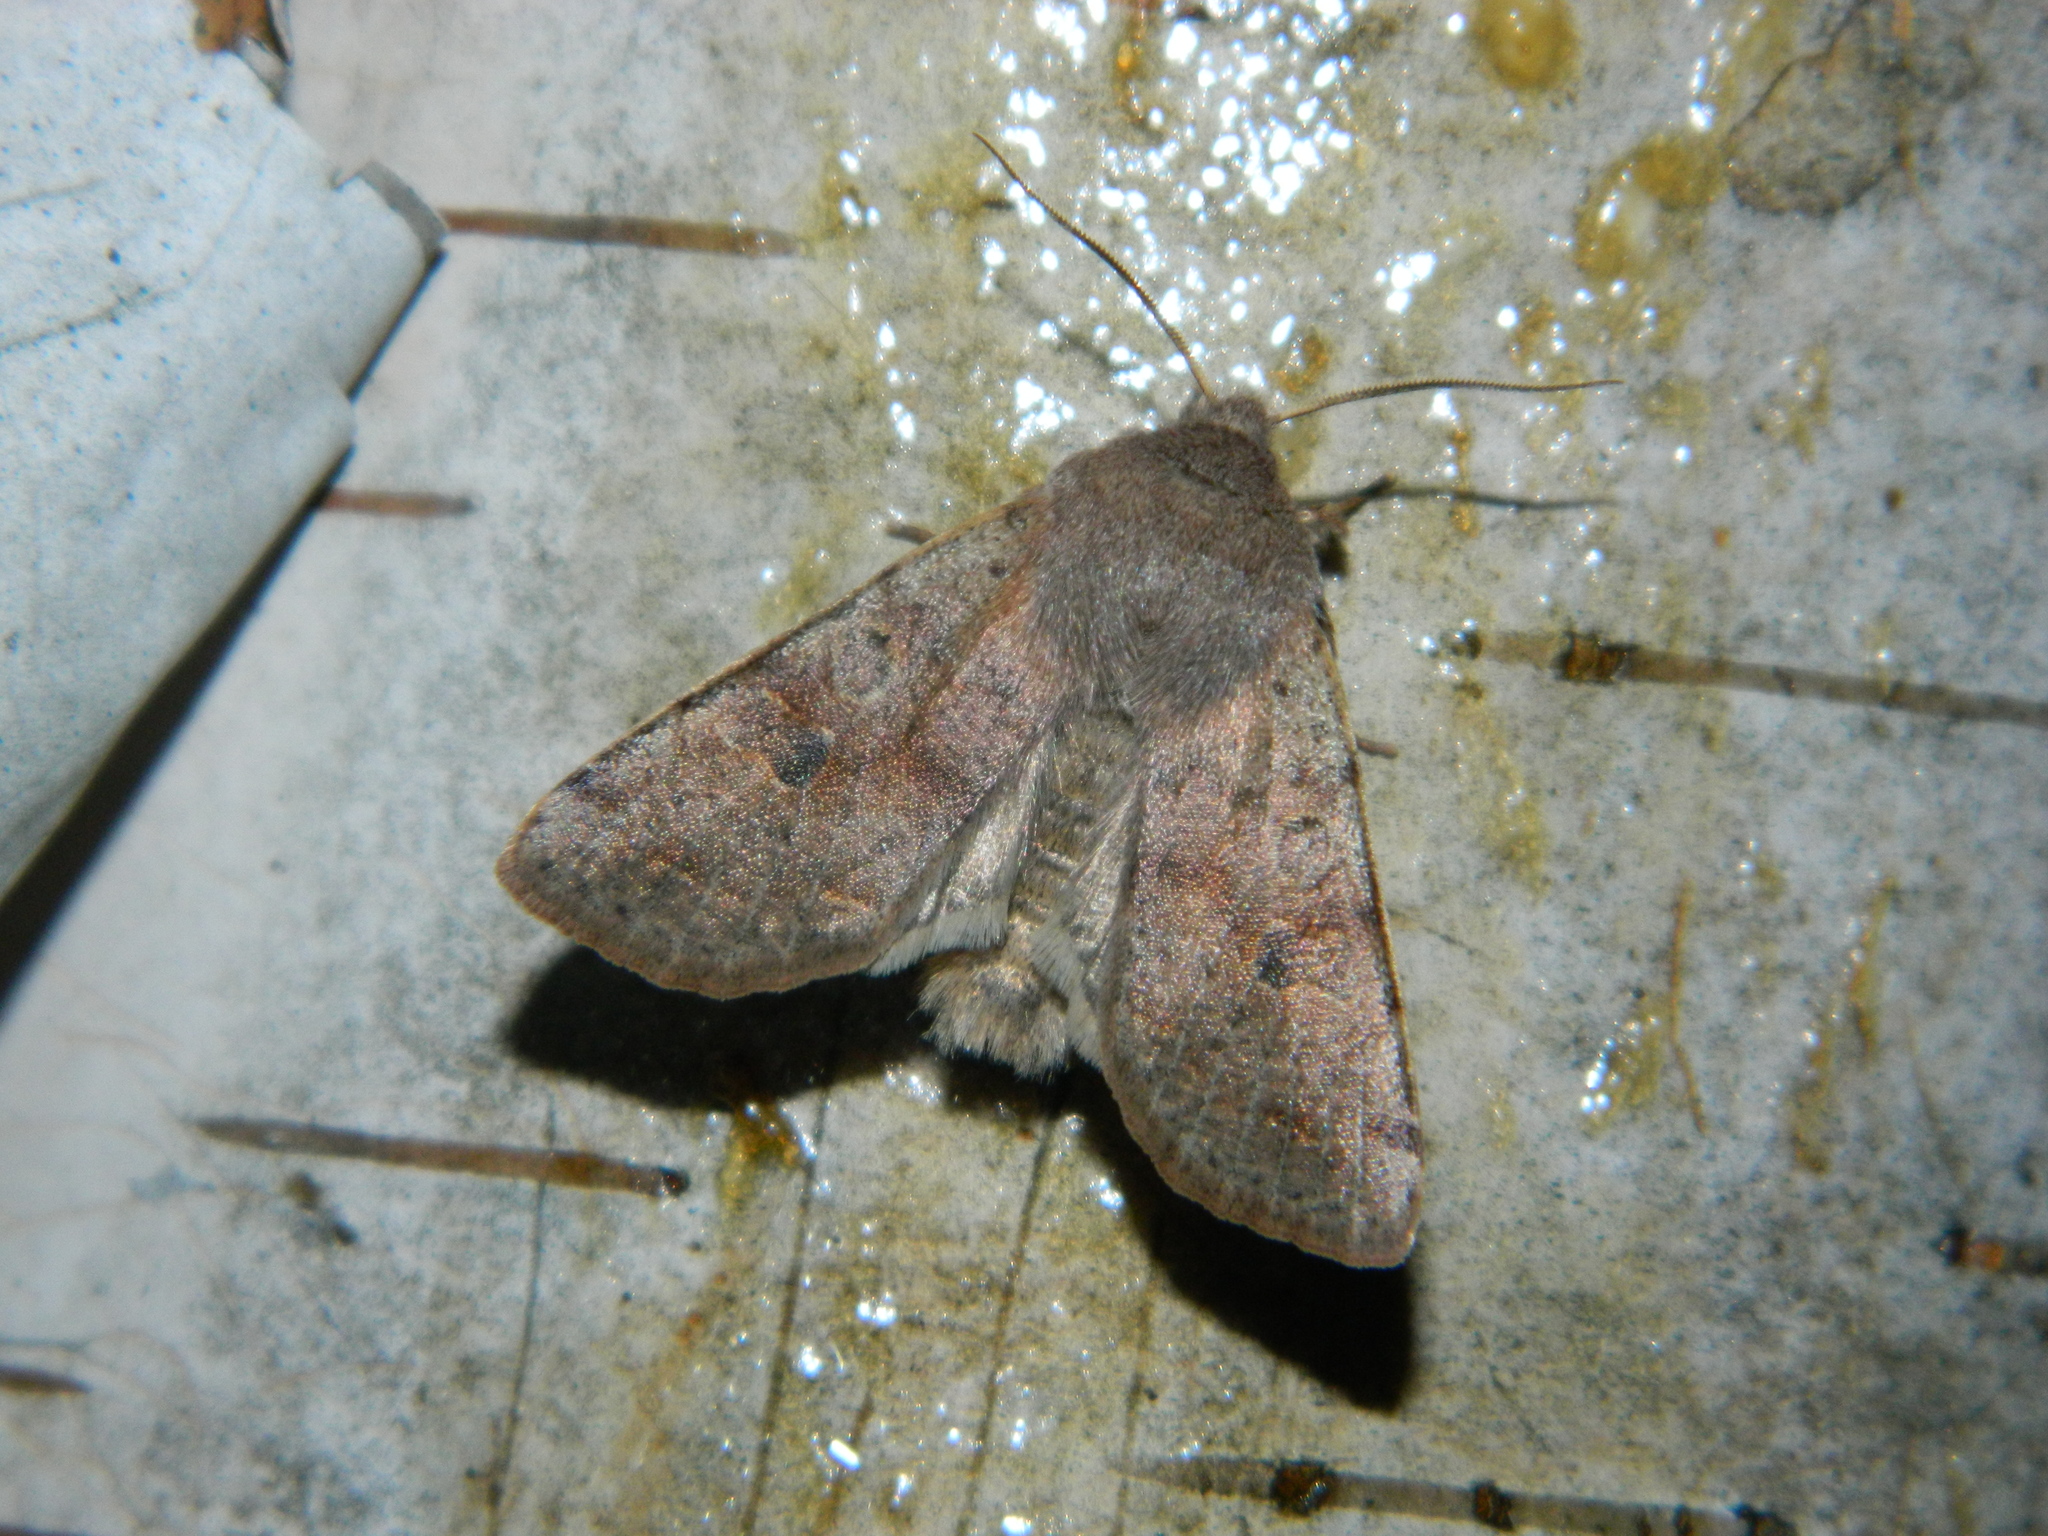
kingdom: Animalia
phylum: Arthropoda
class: Insecta
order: Lepidoptera
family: Noctuidae
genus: Orthosia
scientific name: Orthosia hibisci
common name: Green fruitworm
